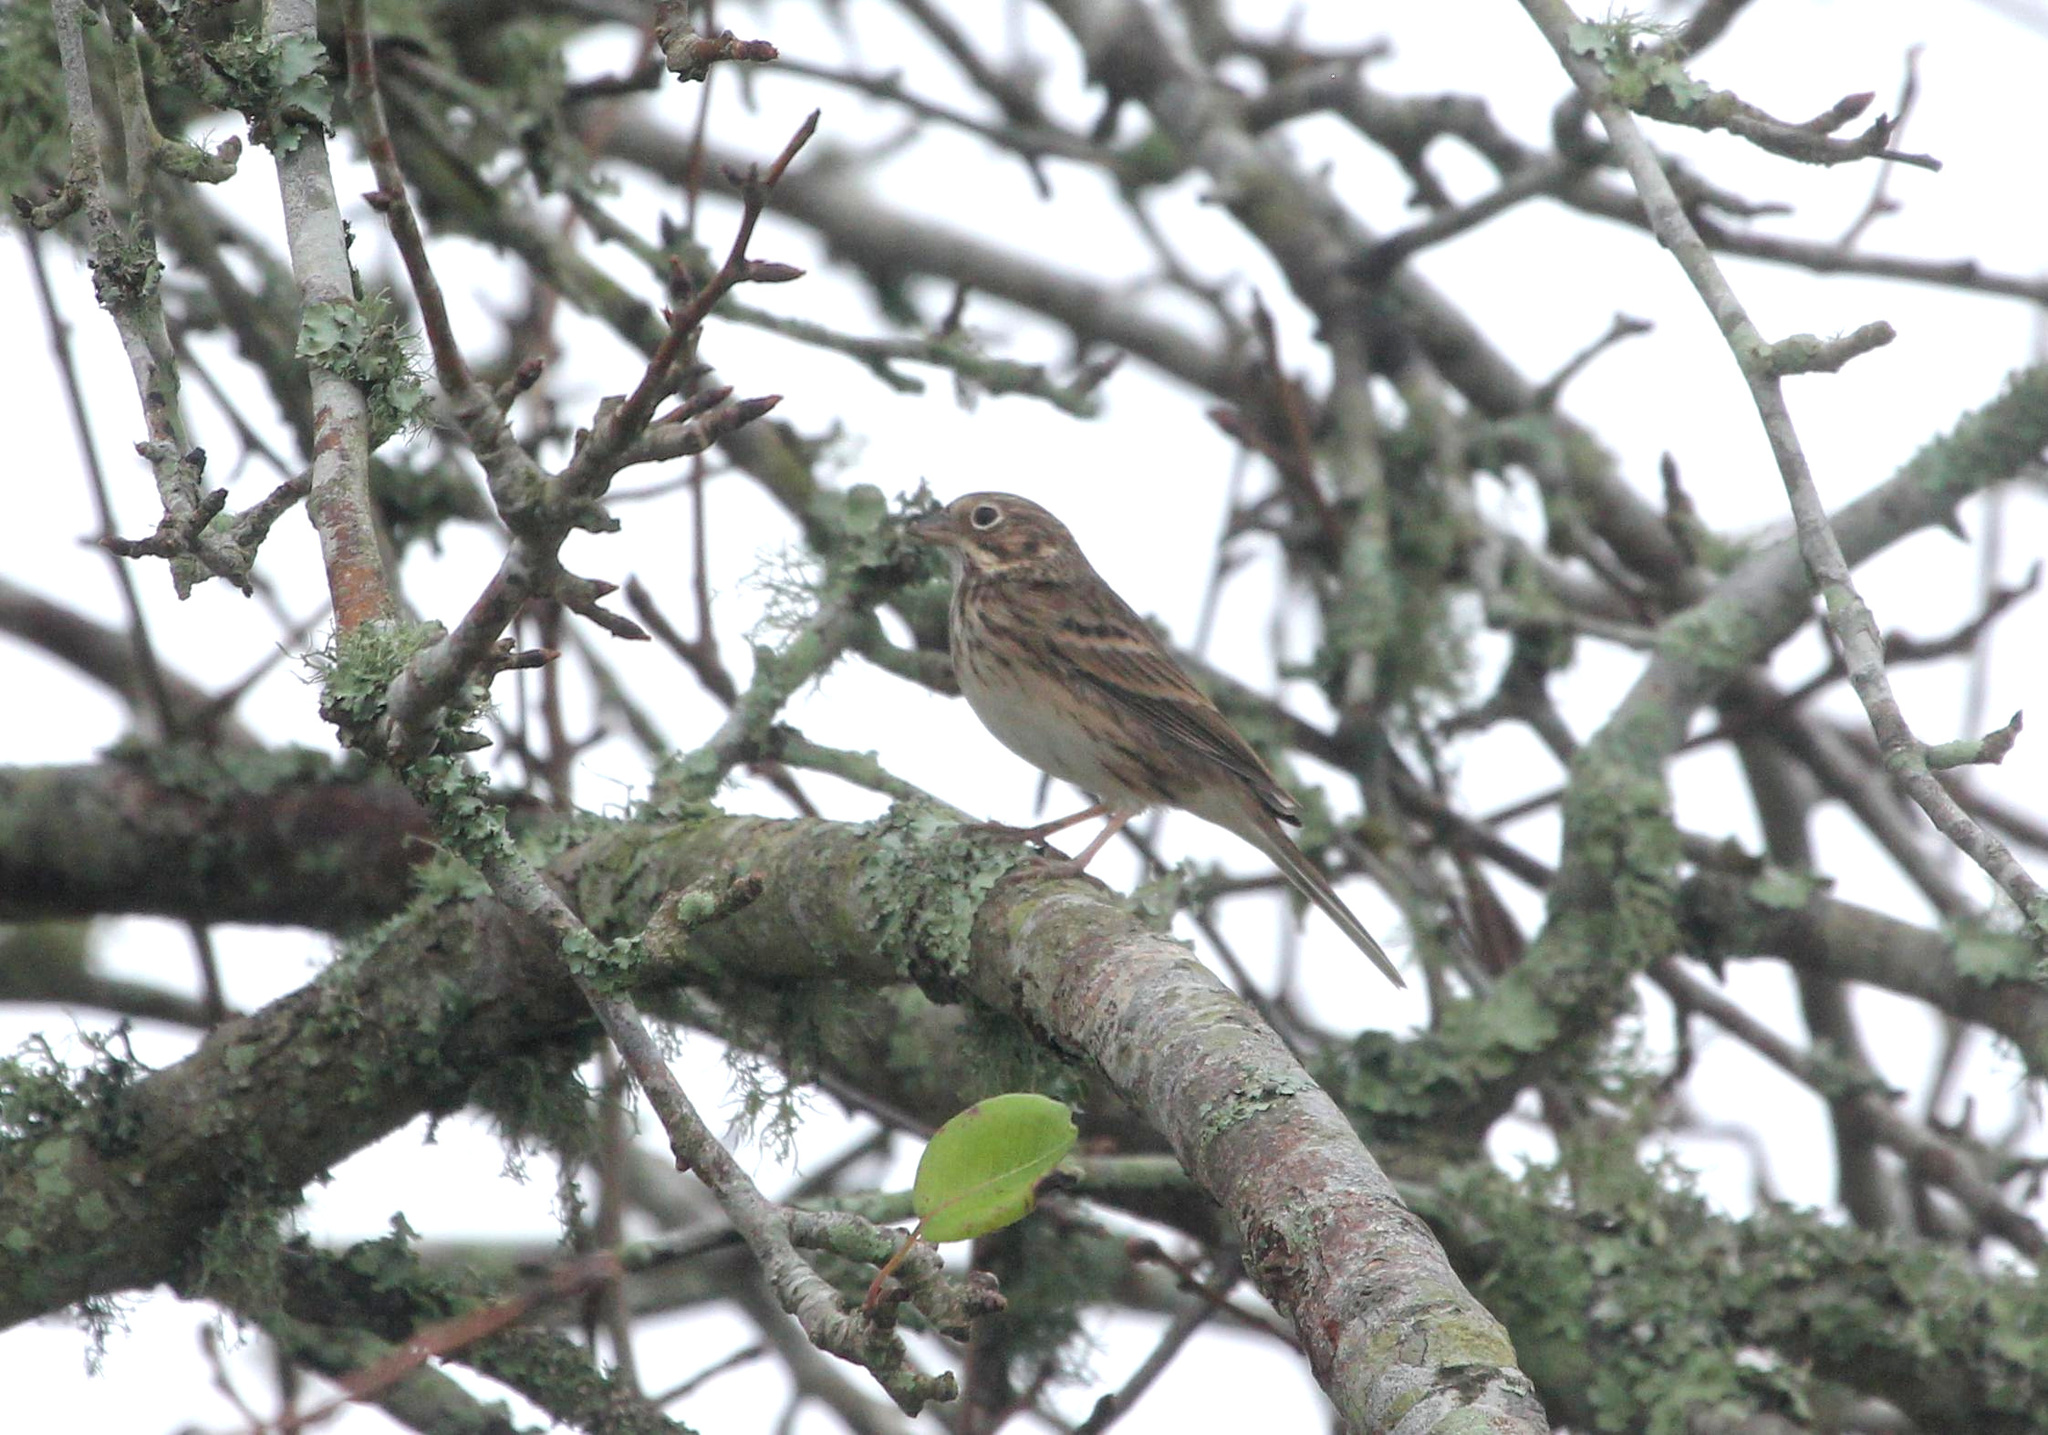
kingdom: Animalia
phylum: Chordata
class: Aves
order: Passeriformes
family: Passerellidae
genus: Pooecetes
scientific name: Pooecetes gramineus
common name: Vesper sparrow
